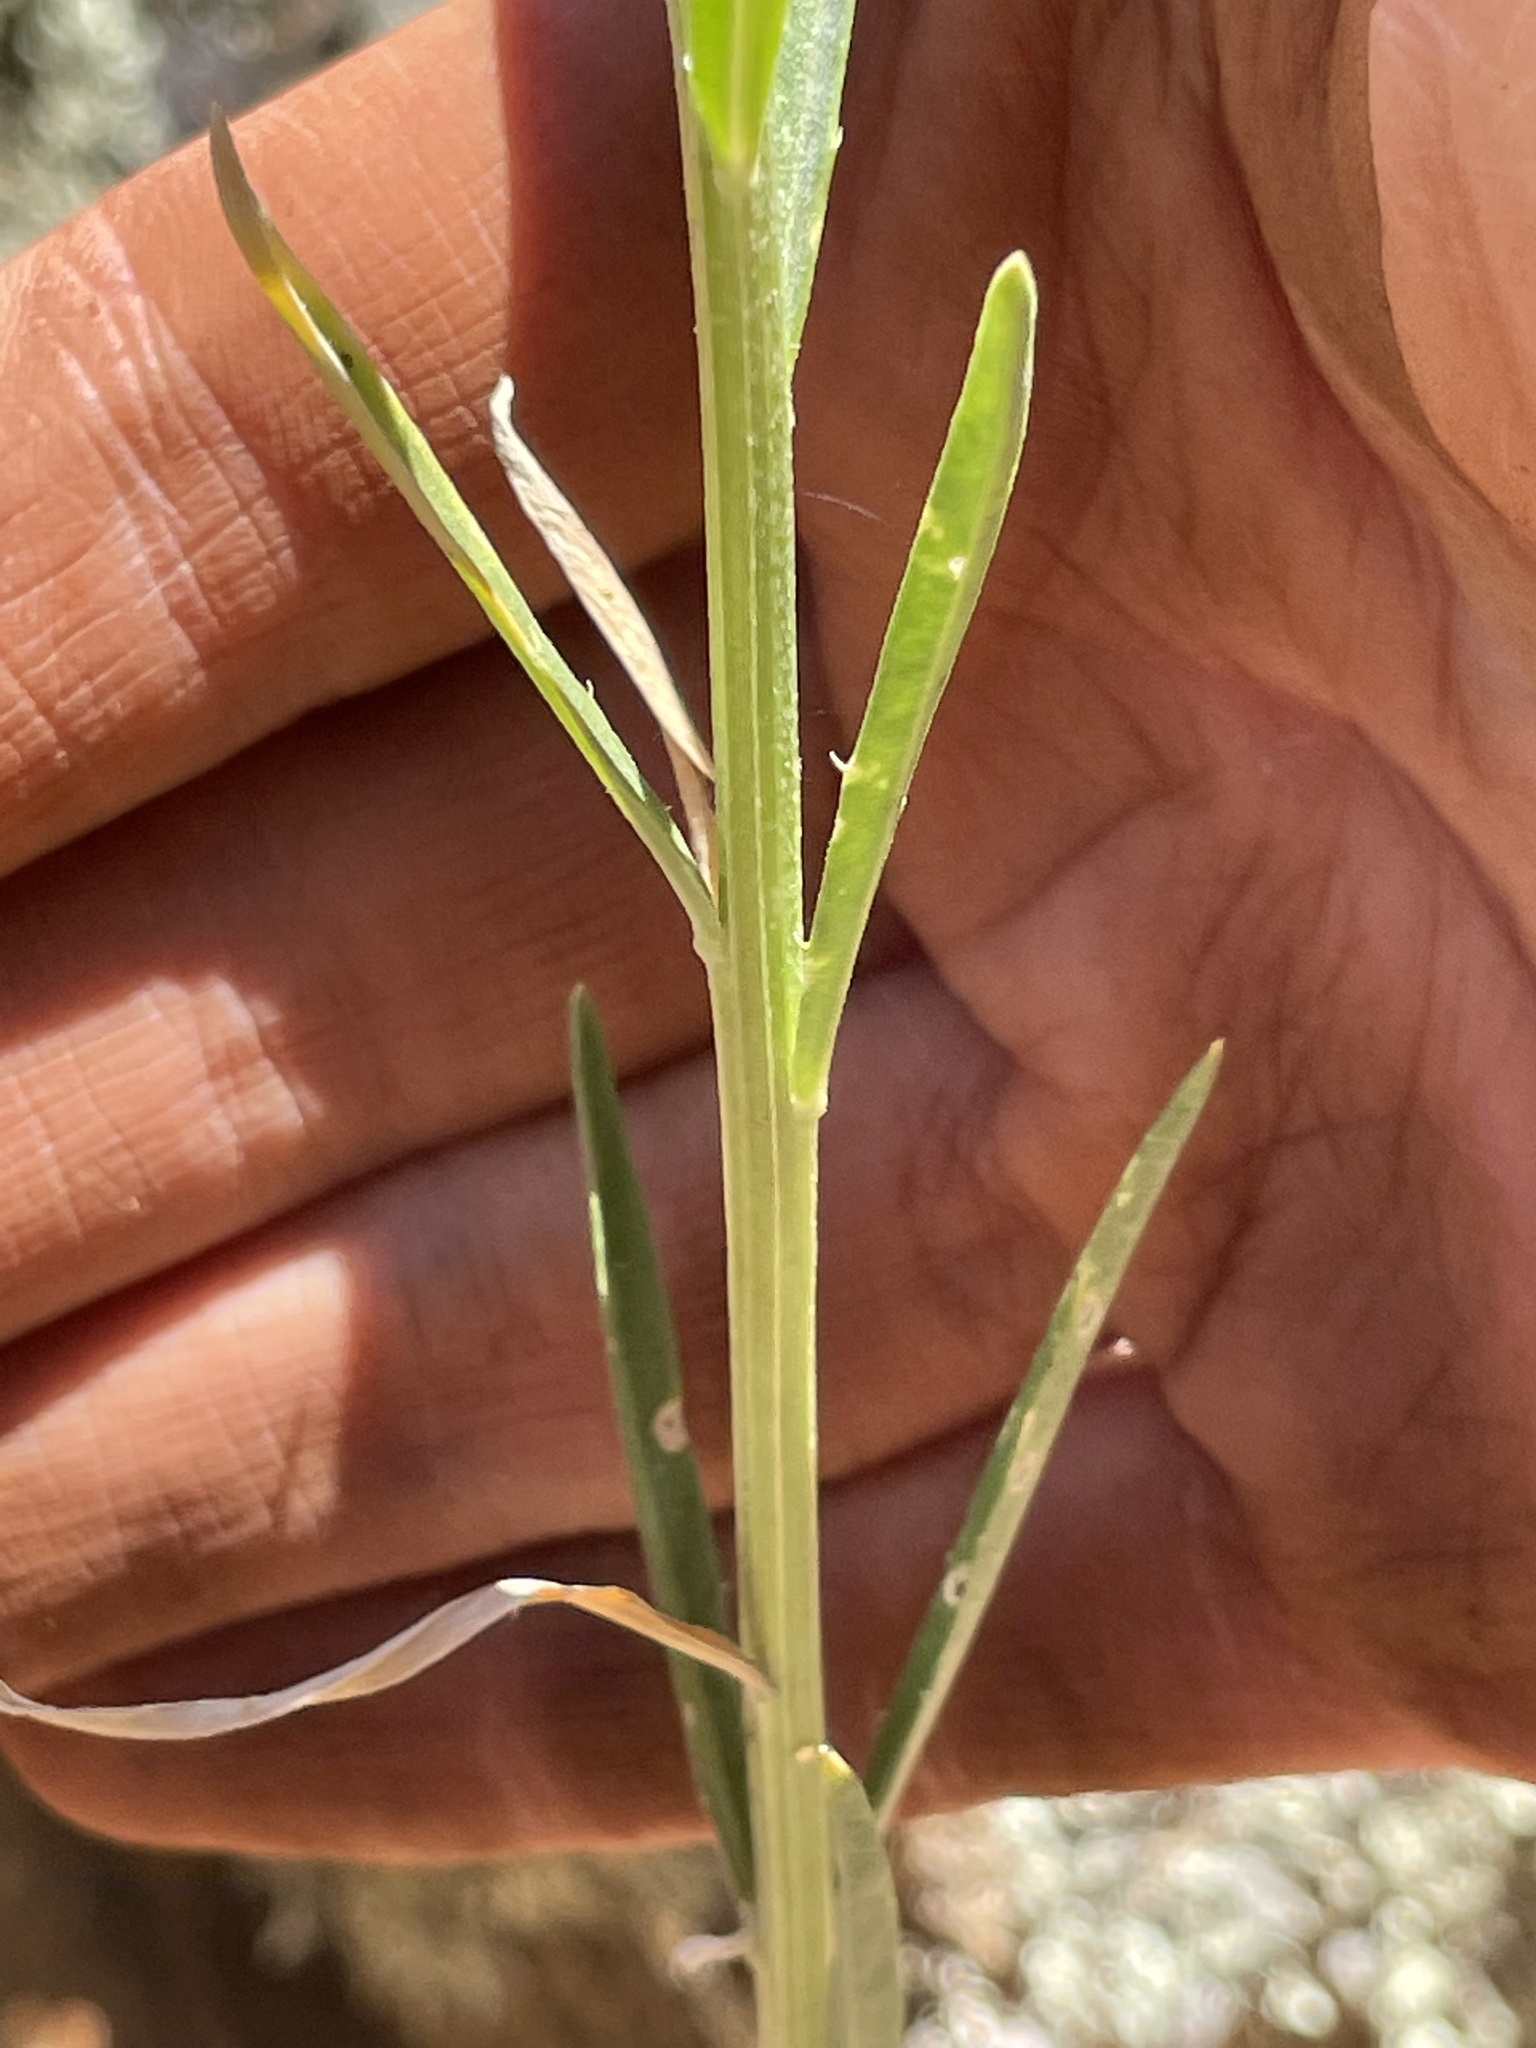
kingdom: Plantae
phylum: Tracheophyta
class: Magnoliopsida
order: Brassicales
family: Brassicaceae
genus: Erysimum
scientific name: Erysimum capitatum
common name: Western wallflower
